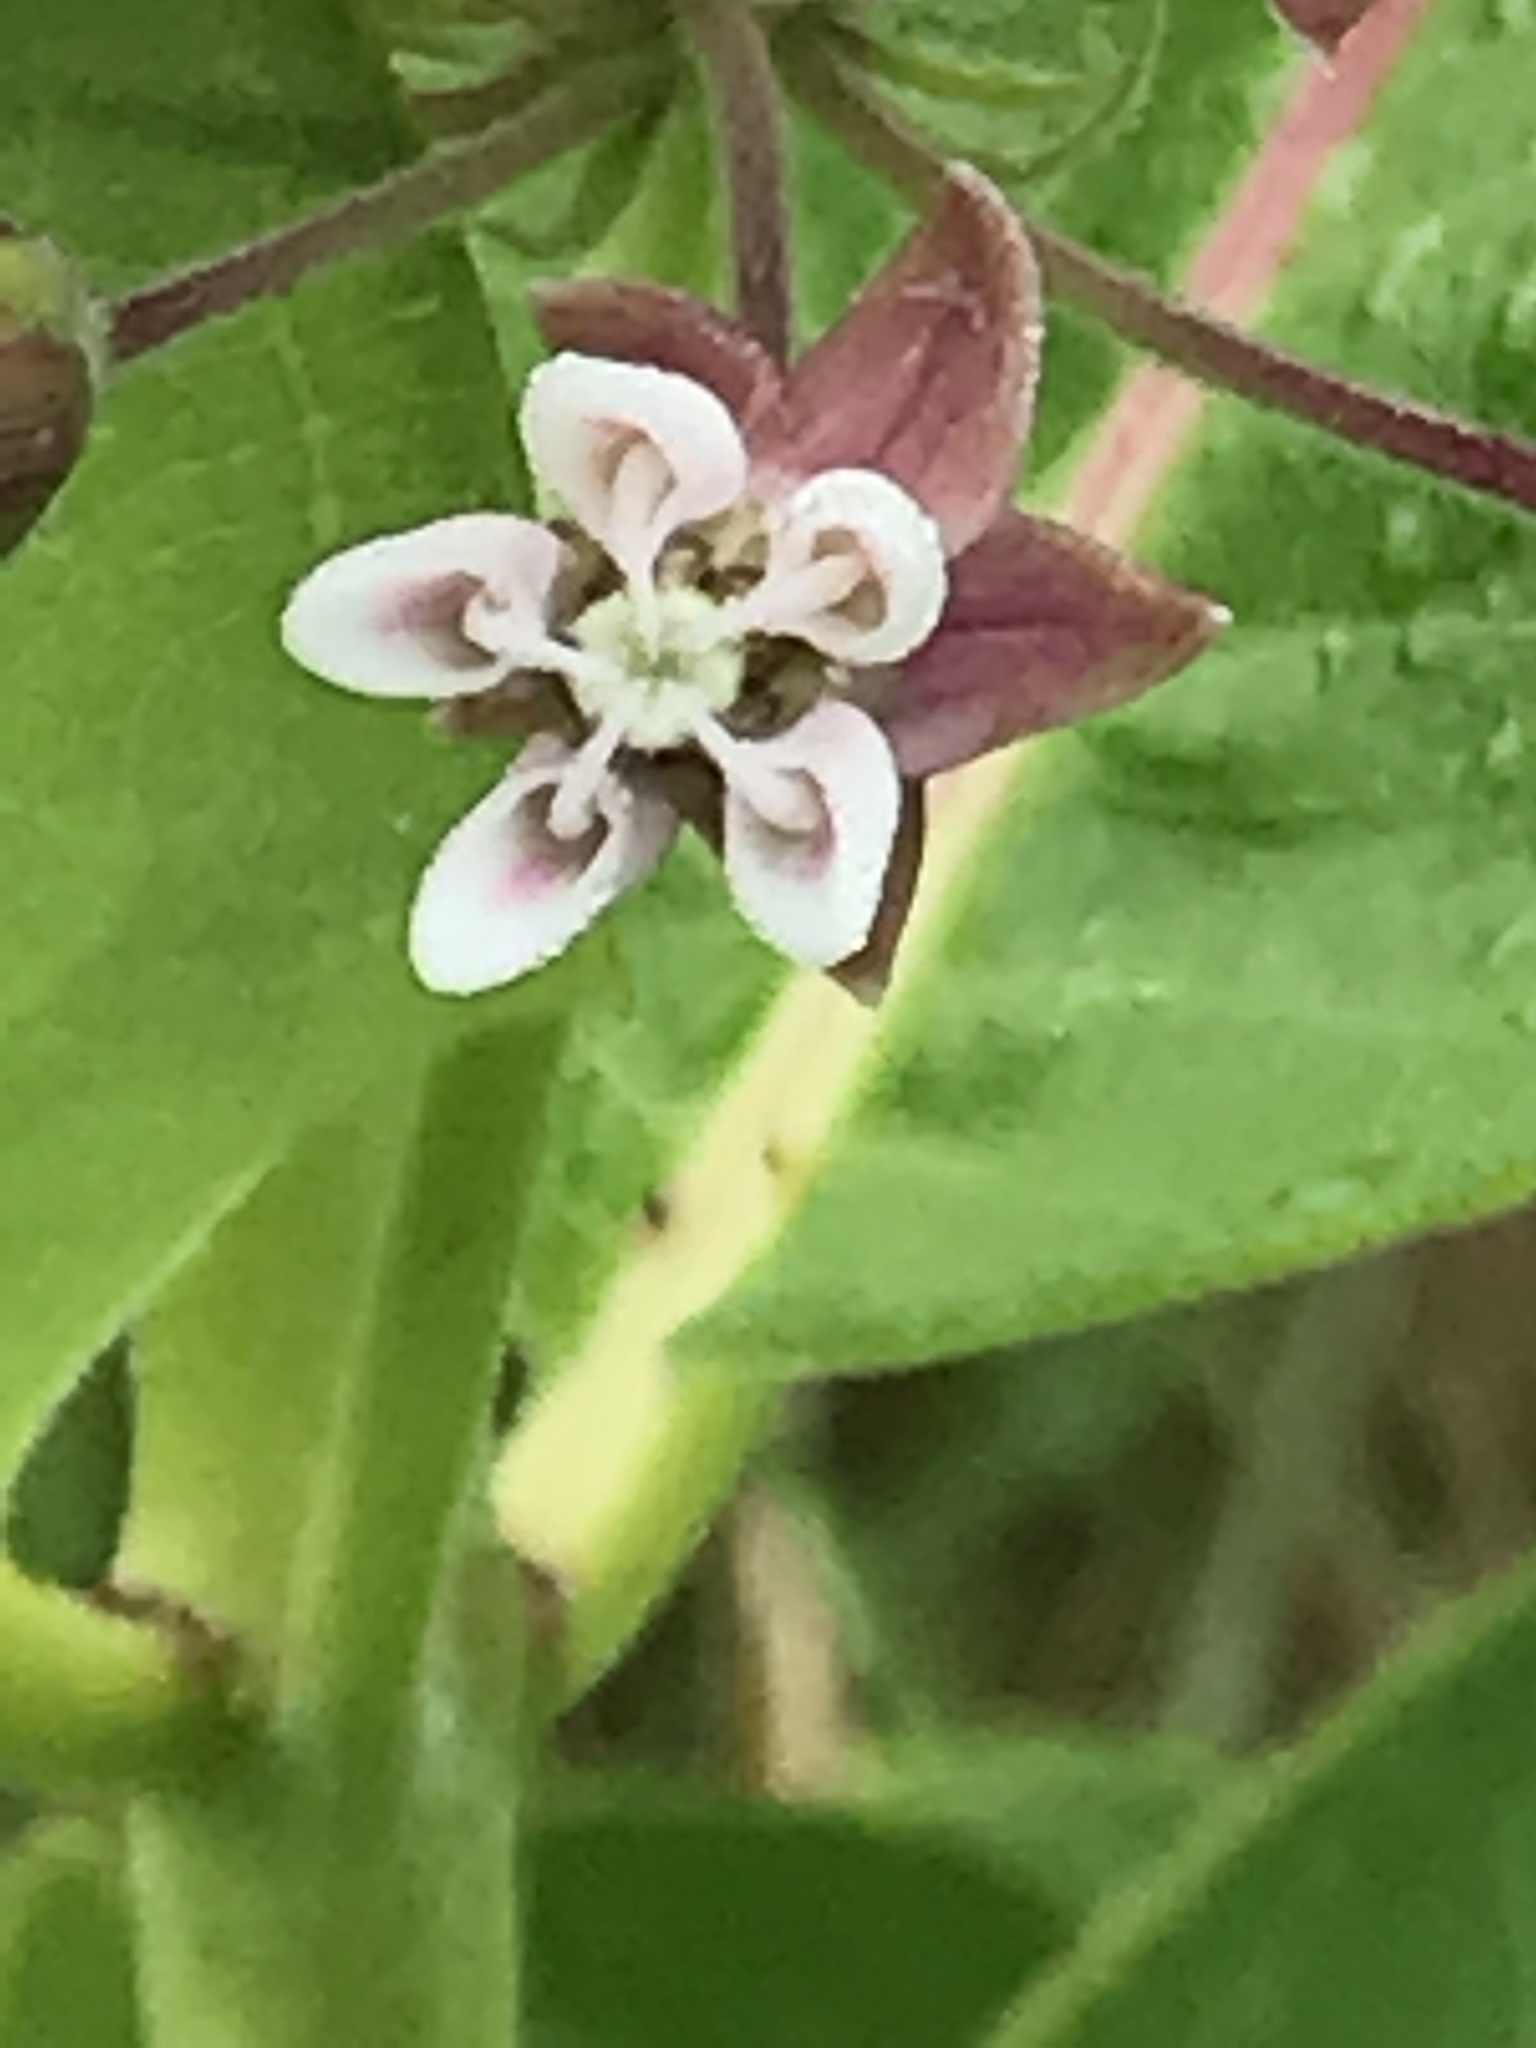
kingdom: Plantae
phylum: Tracheophyta
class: Magnoliopsida
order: Gentianales
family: Apocynaceae
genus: Asclepias
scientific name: Asclepias syriaca
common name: Common milkweed
